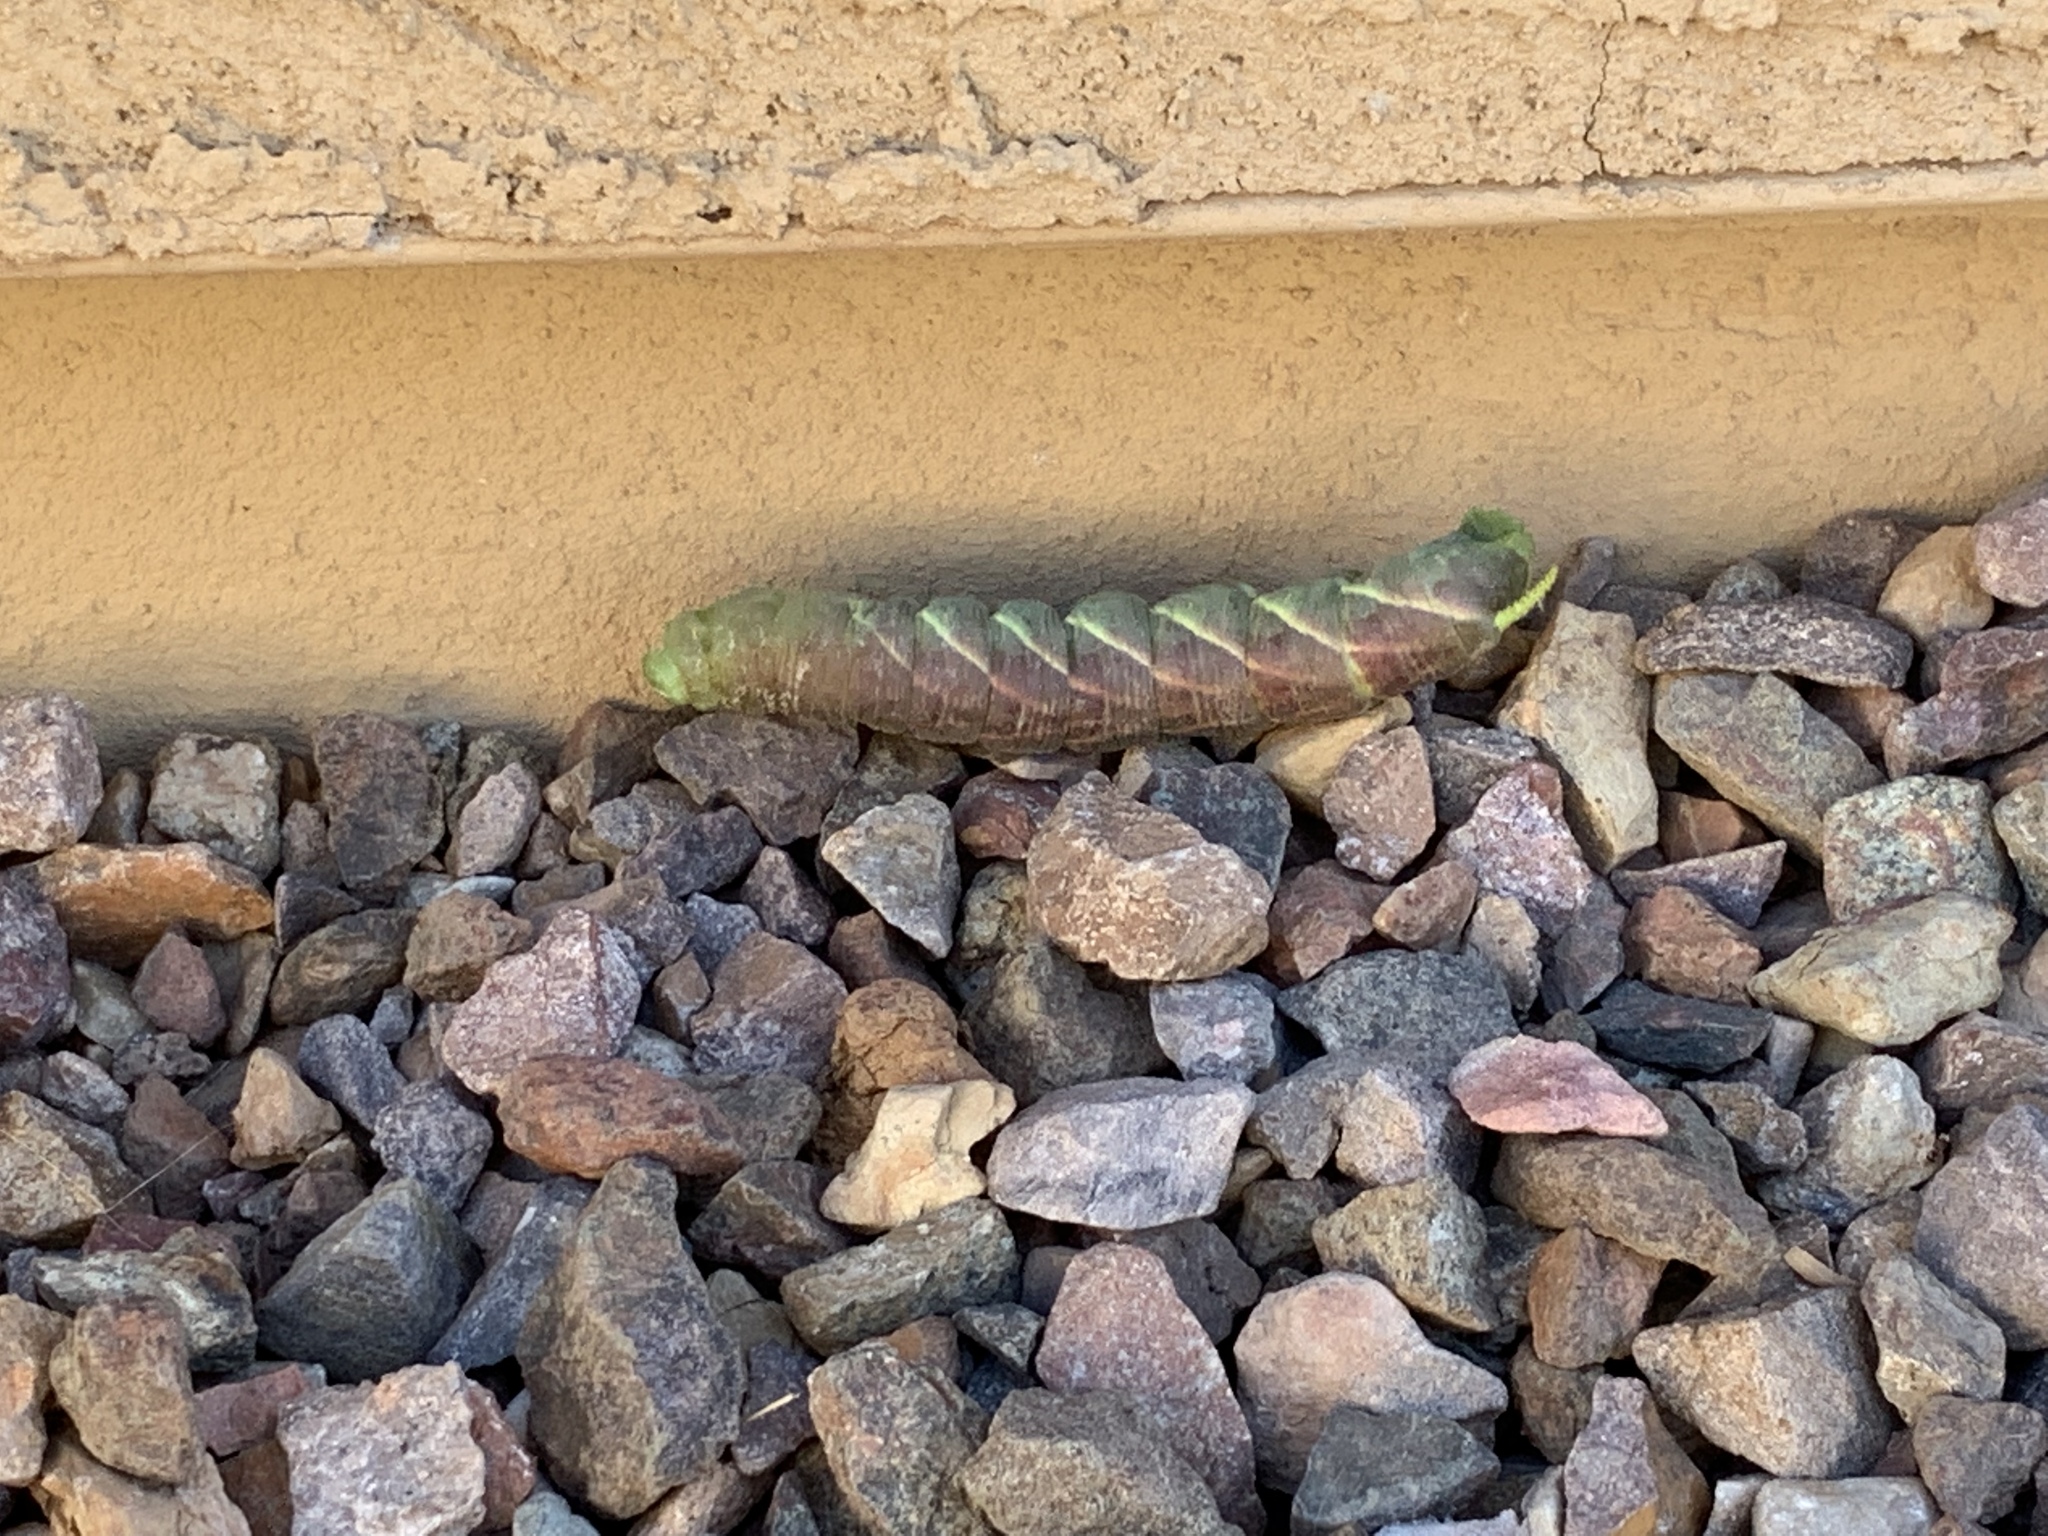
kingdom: Animalia
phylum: Arthropoda
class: Insecta
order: Lepidoptera
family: Sphingidae
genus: Manduca
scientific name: Manduca rustica
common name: Rustic sphinx
